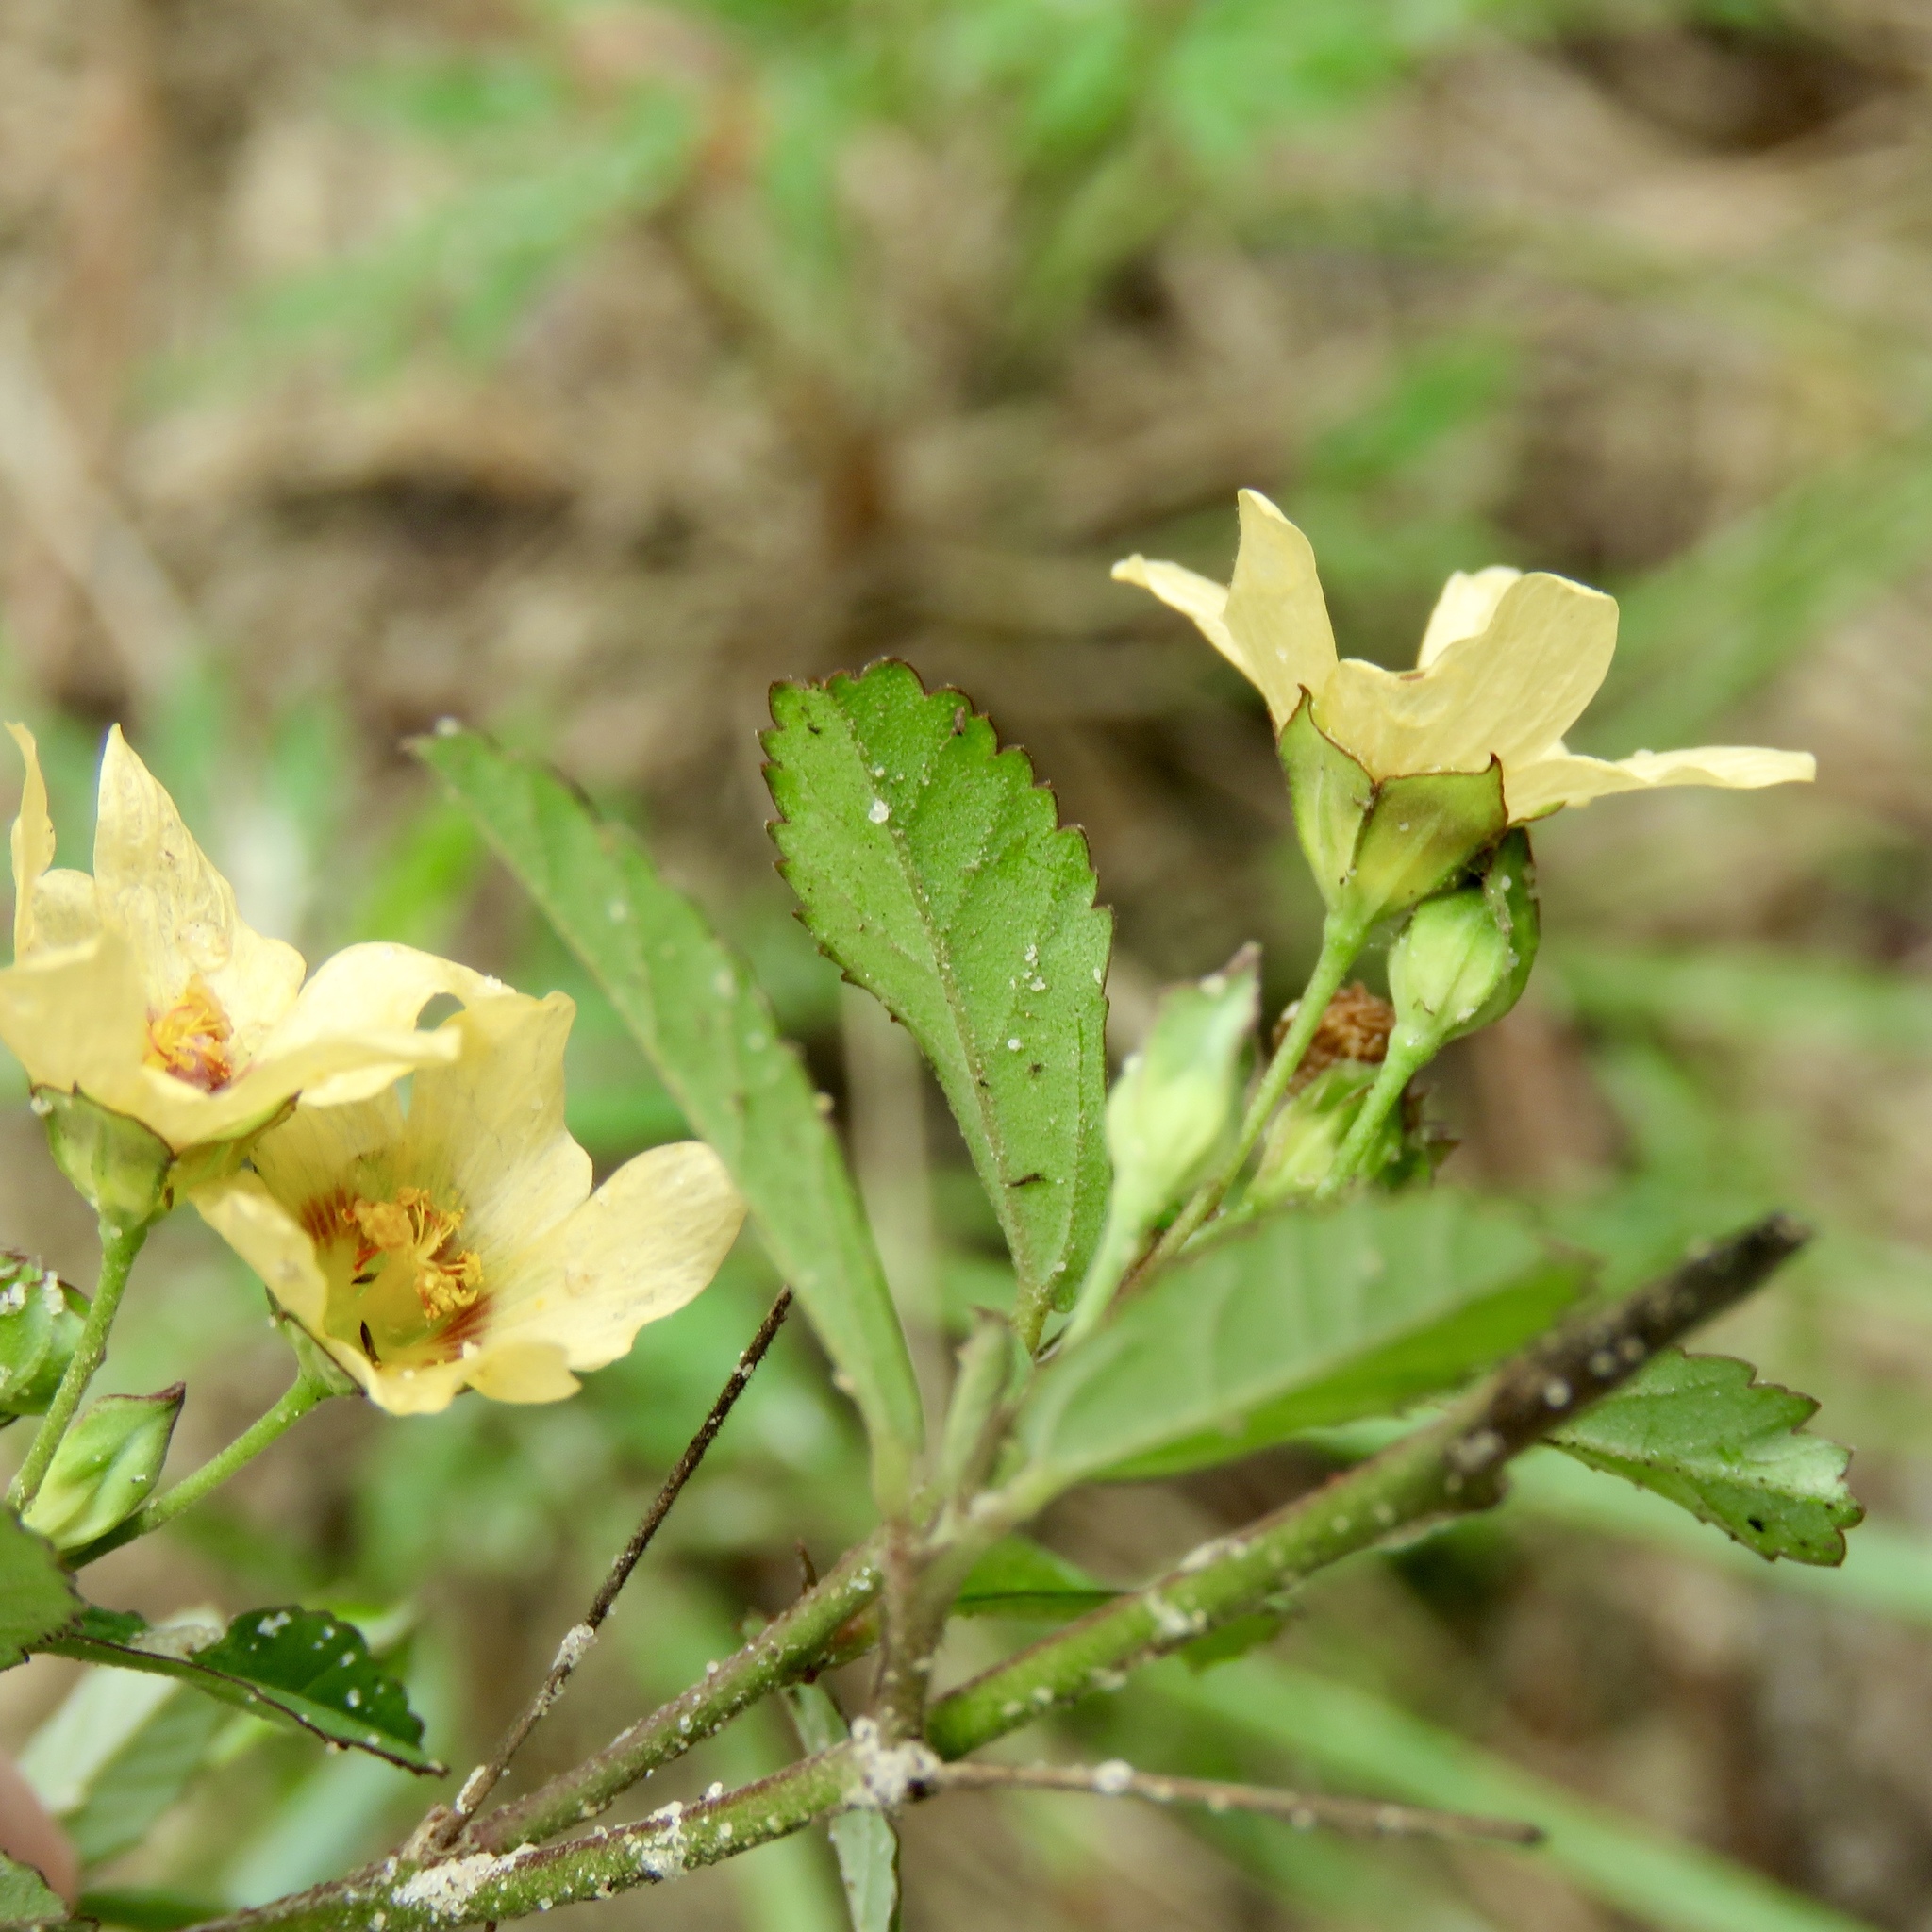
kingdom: Plantae
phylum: Tracheophyta
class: Magnoliopsida
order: Malvales
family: Malvaceae
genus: Sida
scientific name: Sida rhombifolia
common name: Queensland-hemp
